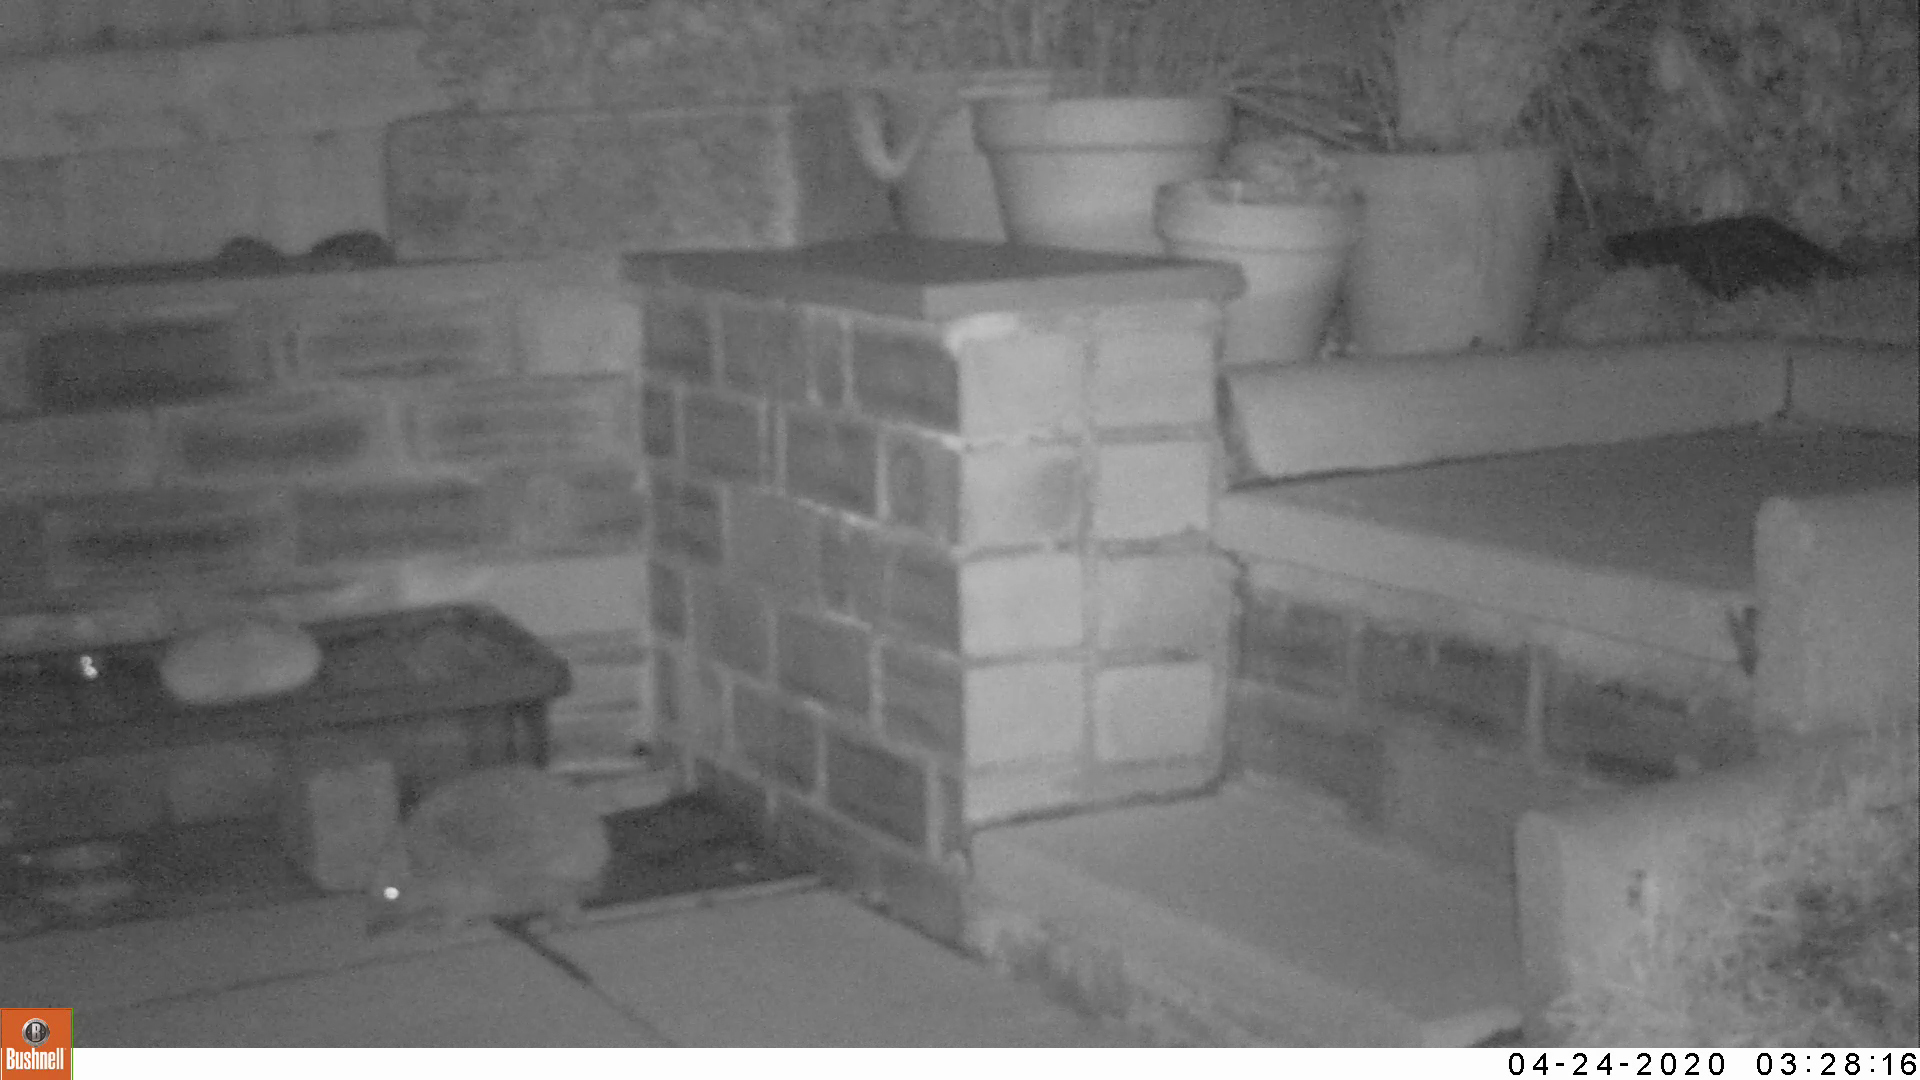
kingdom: Animalia
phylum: Chordata
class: Mammalia
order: Erinaceomorpha
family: Erinaceidae
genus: Erinaceus
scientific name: Erinaceus europaeus
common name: West european hedgehog
